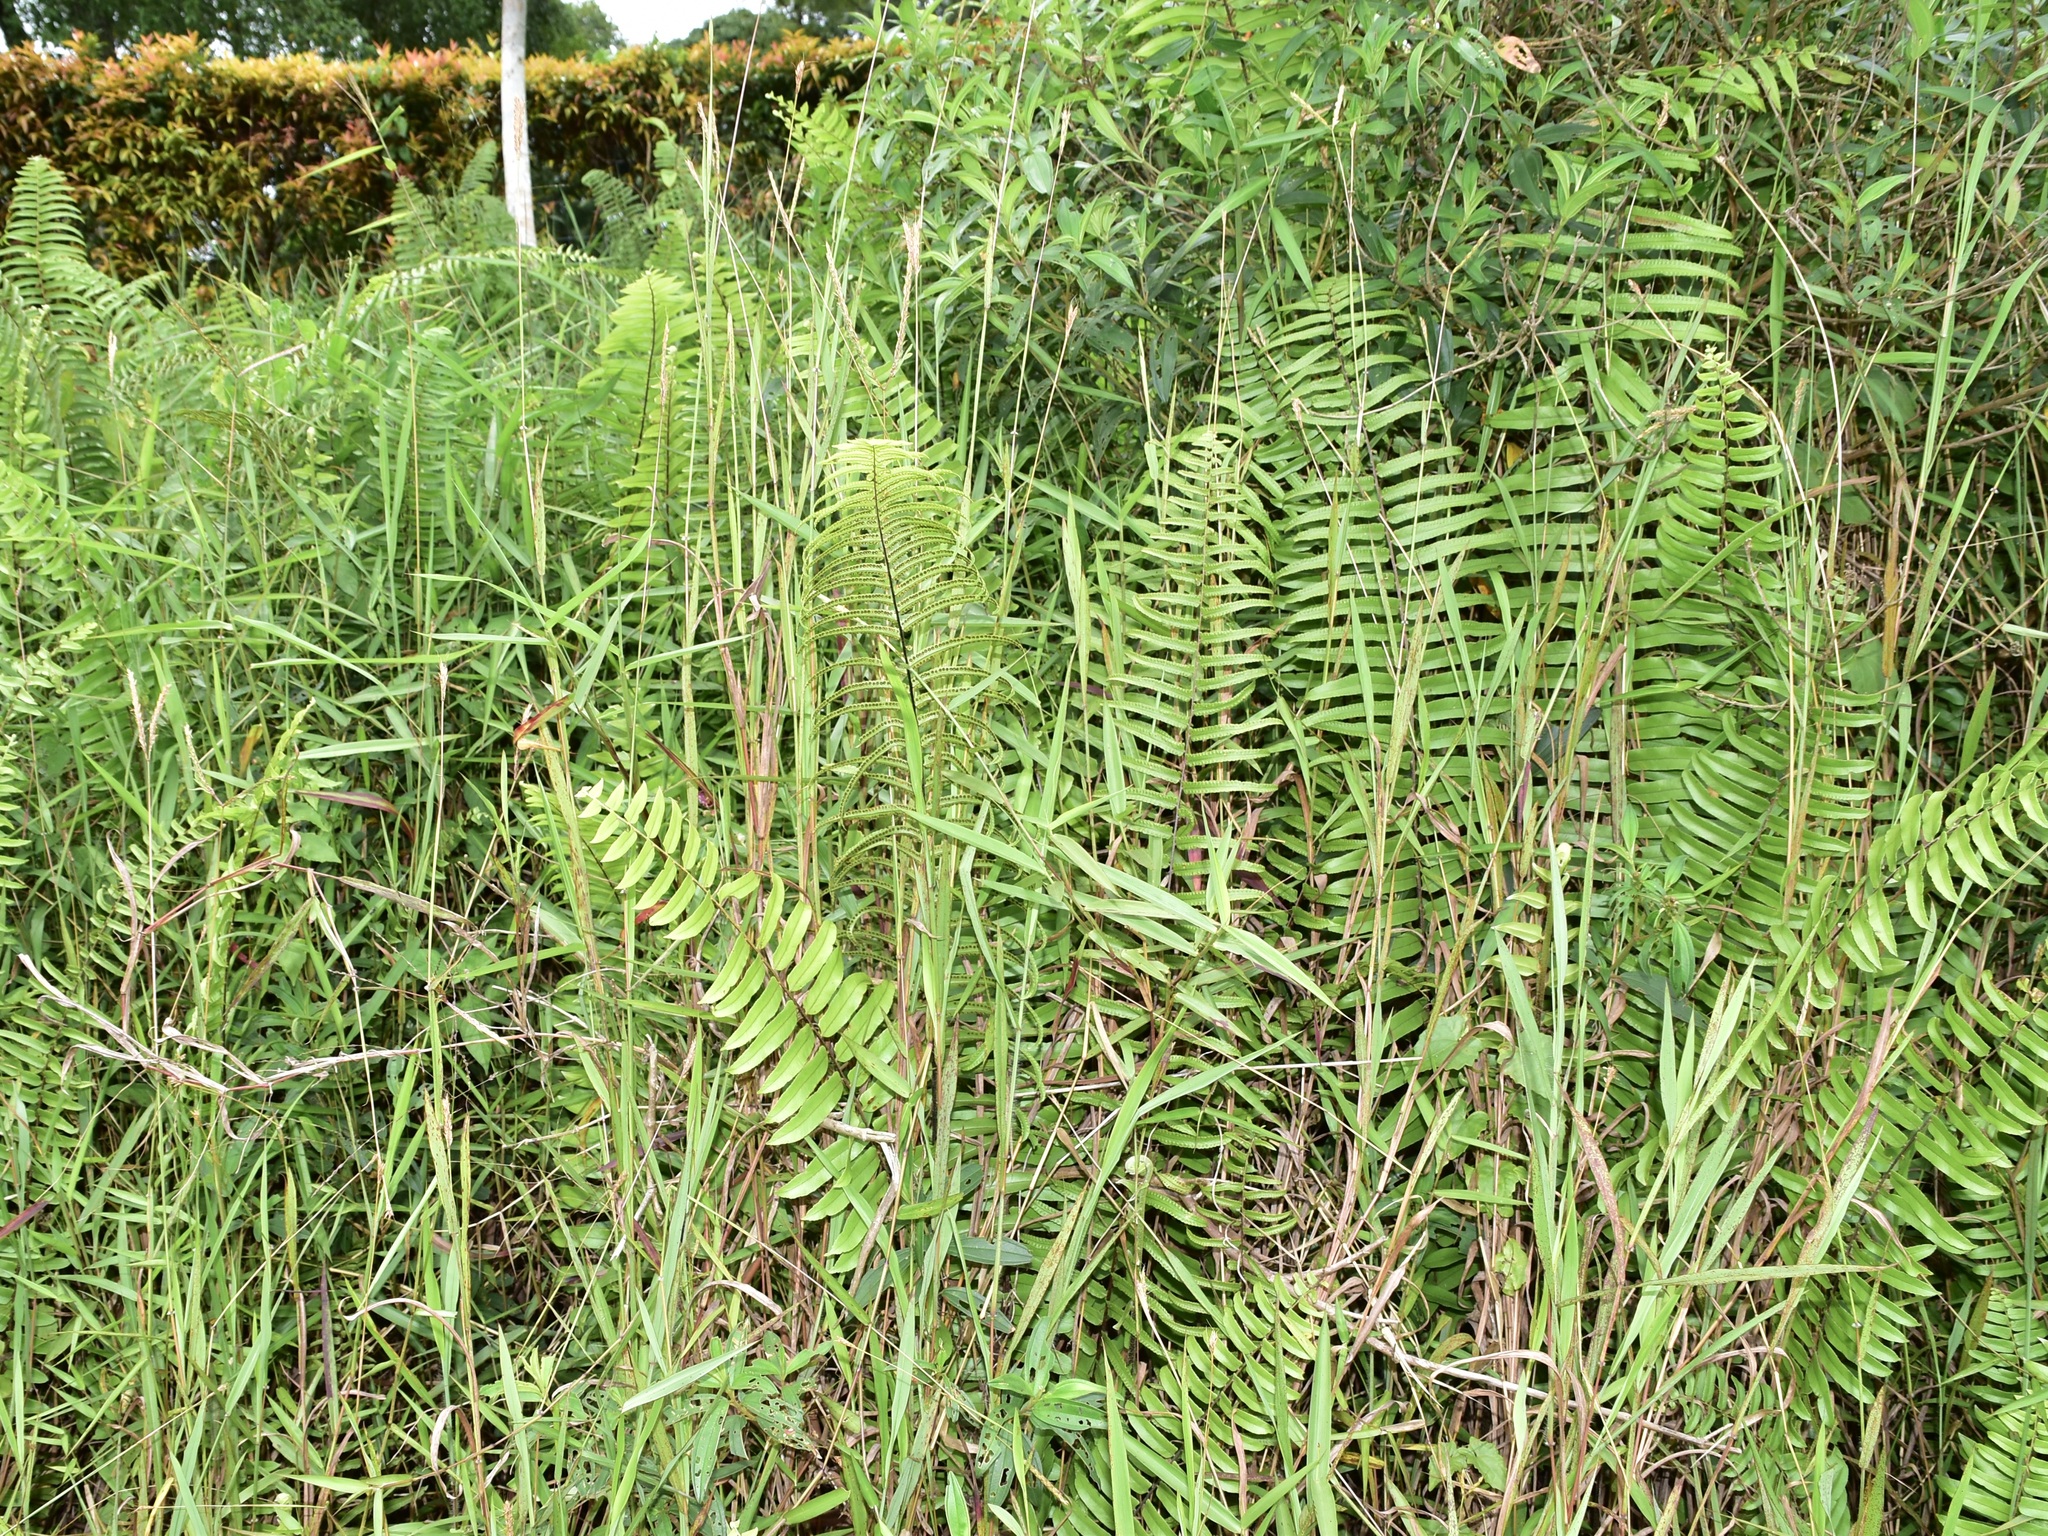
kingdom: Plantae
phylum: Tracheophyta
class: Polypodiopsida
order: Polypodiales
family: Nephrolepidaceae
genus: Nephrolepis
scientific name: Nephrolepis biserrata
